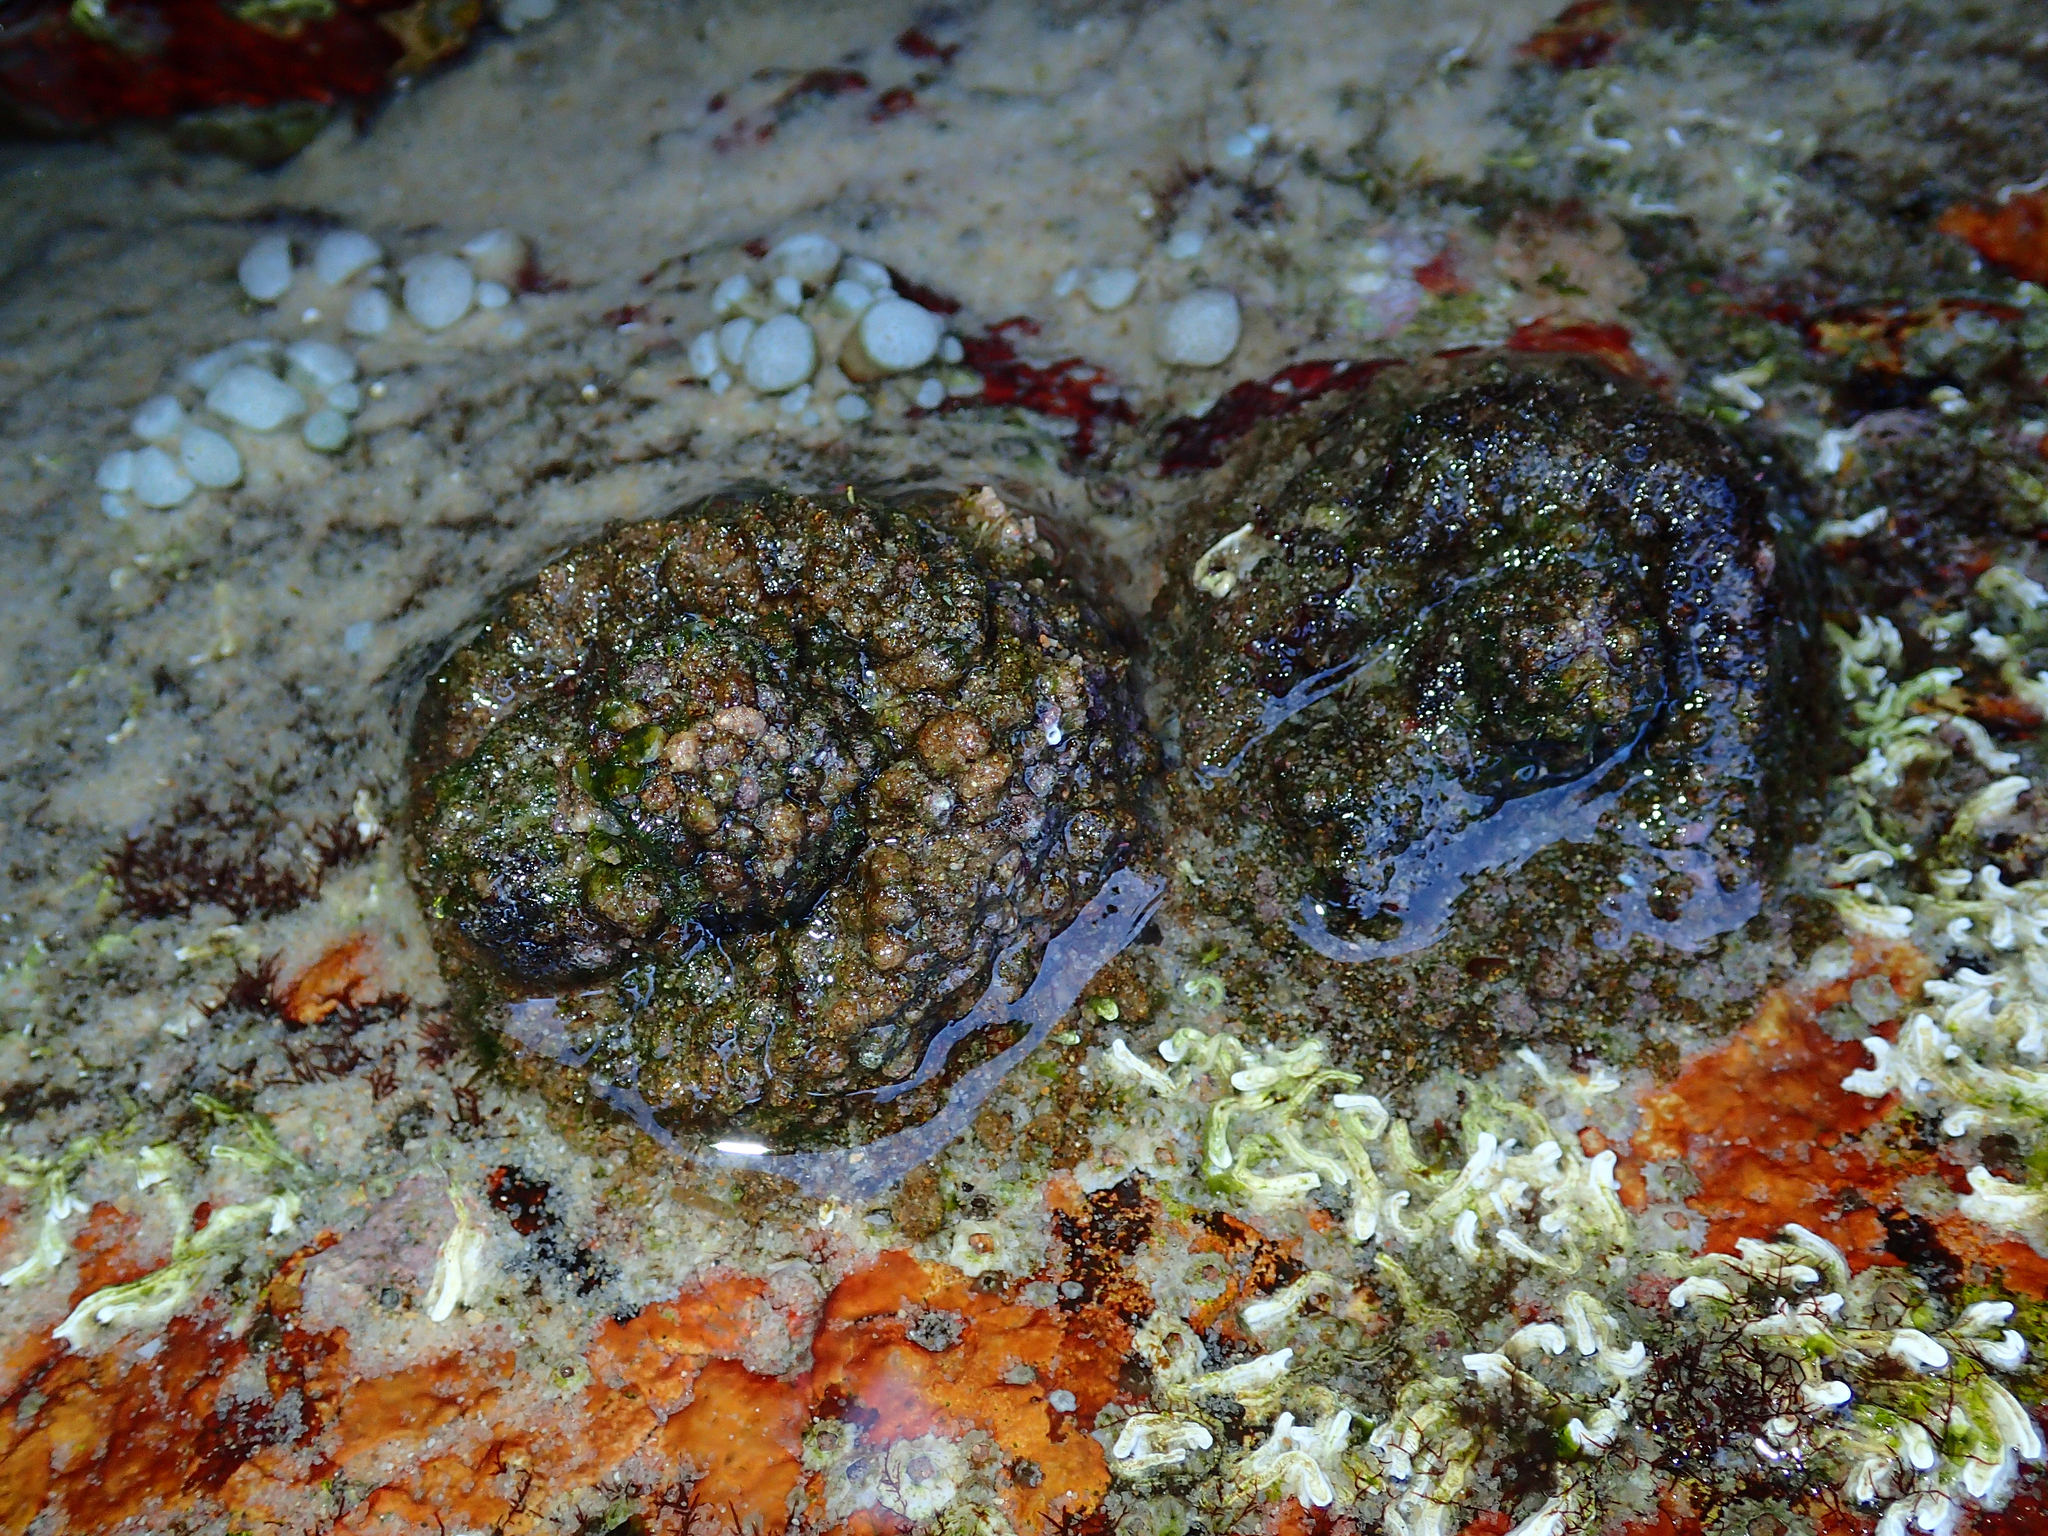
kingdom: Animalia
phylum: Chordata
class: Ascidiacea
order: Stolidobranchia
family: Pyuridae
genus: Pyura
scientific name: Pyura praeputialis
